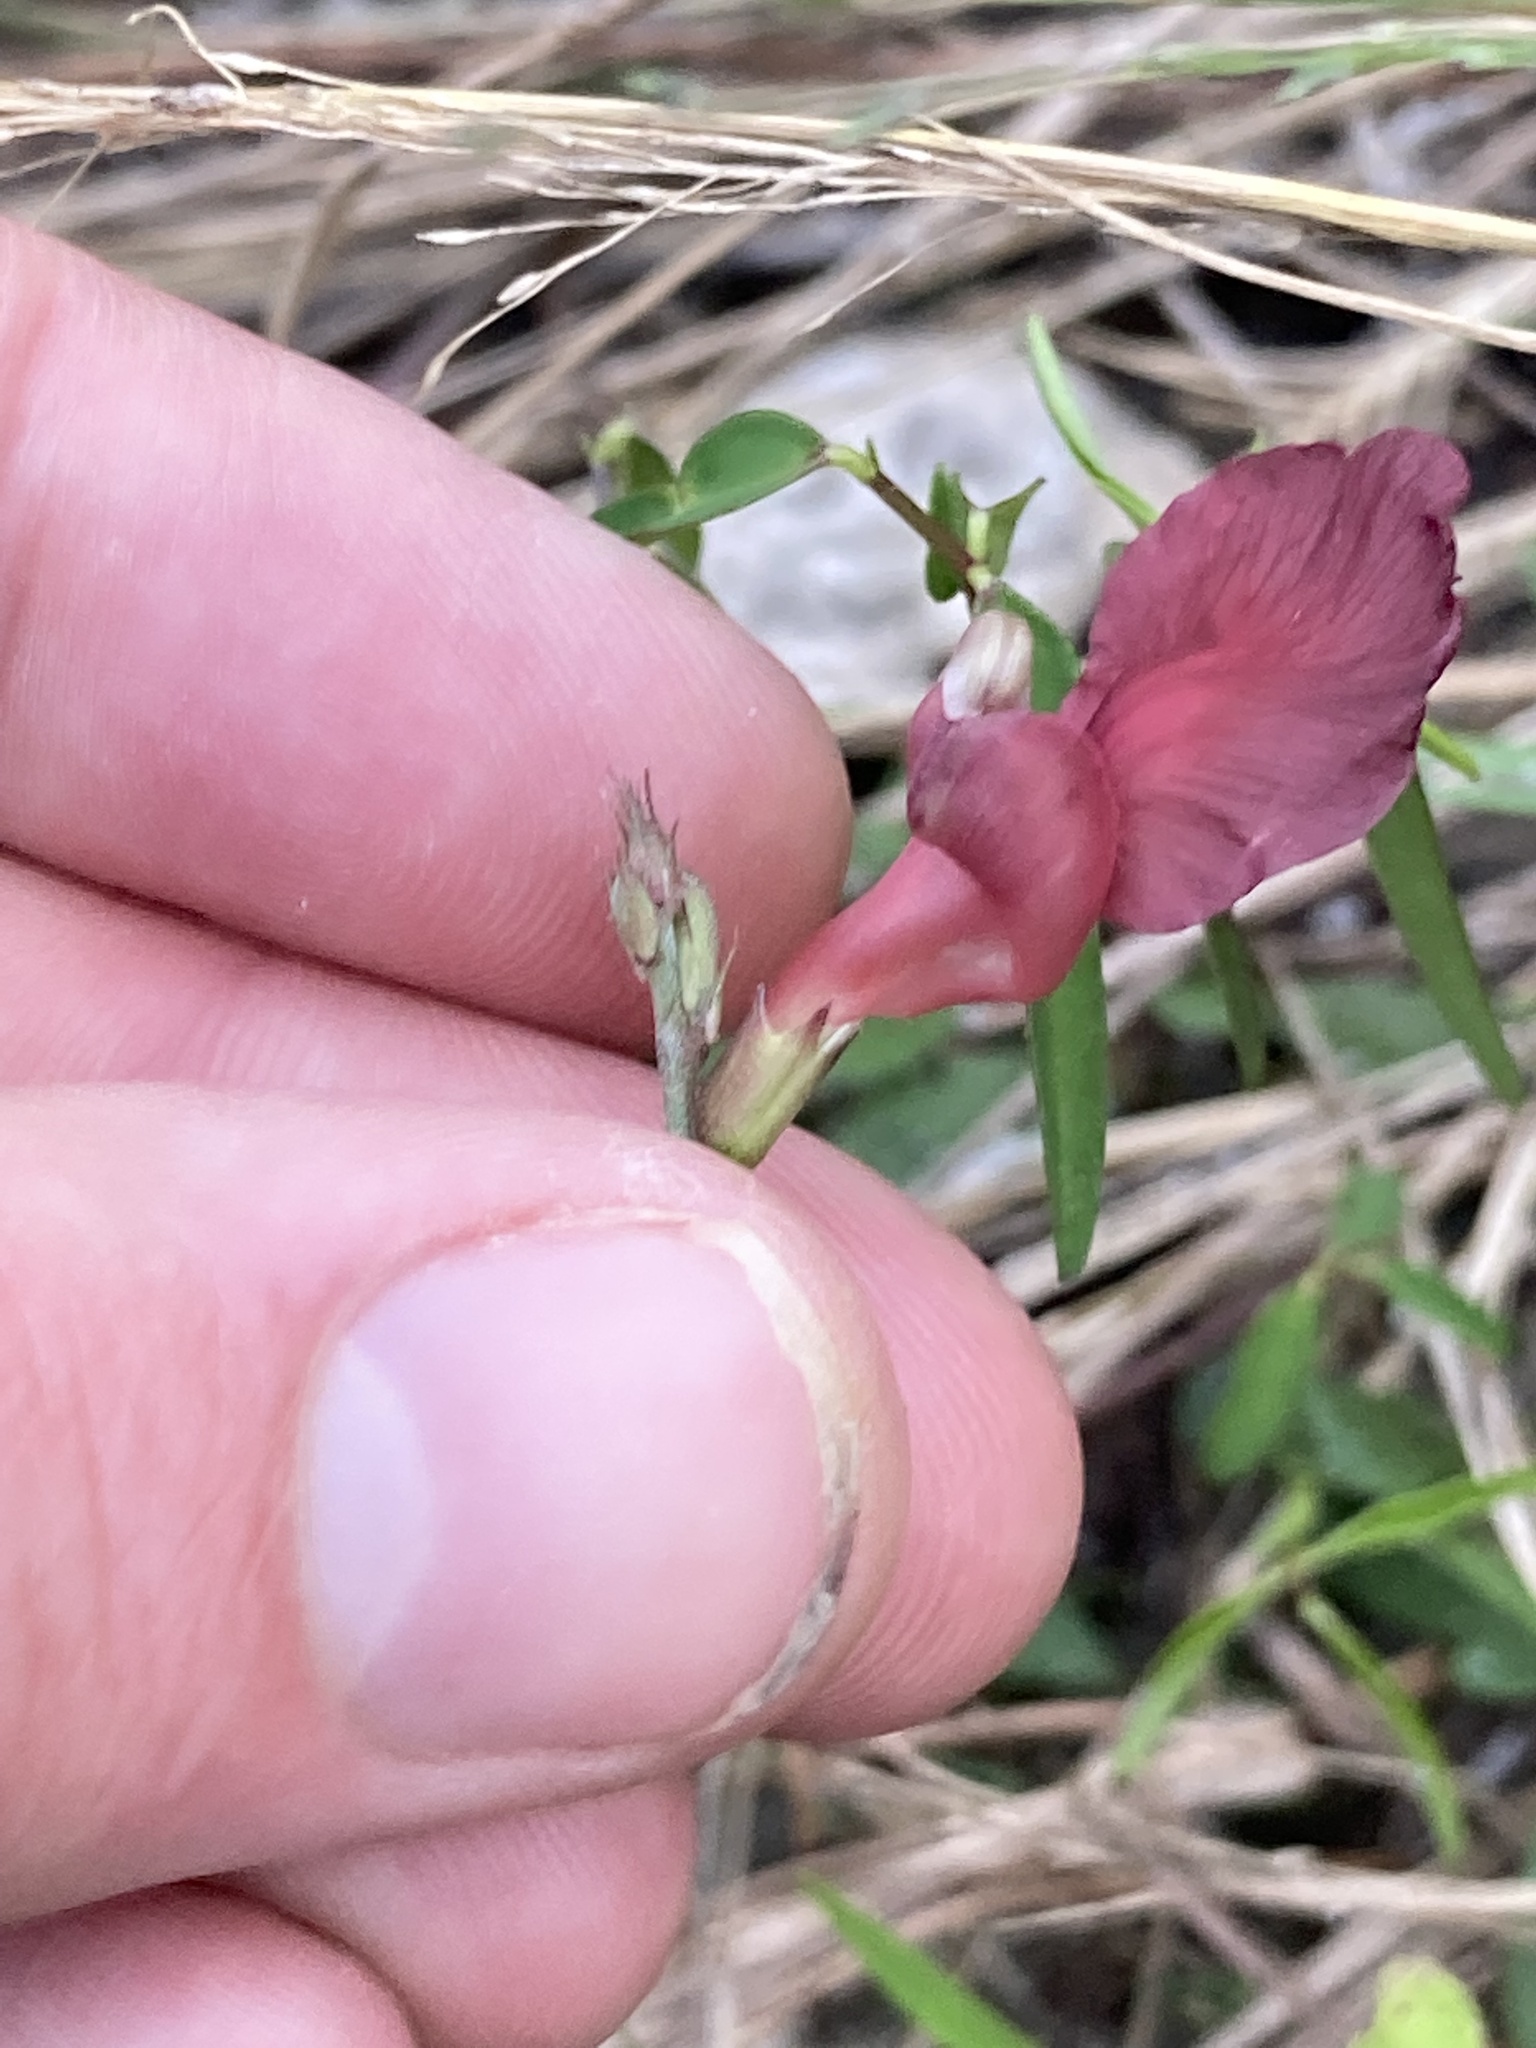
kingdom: Plantae
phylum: Tracheophyta
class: Magnoliopsida
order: Fabales
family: Fabaceae
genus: Macroptilium
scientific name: Macroptilium lathyroides
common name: Wild bushbean
